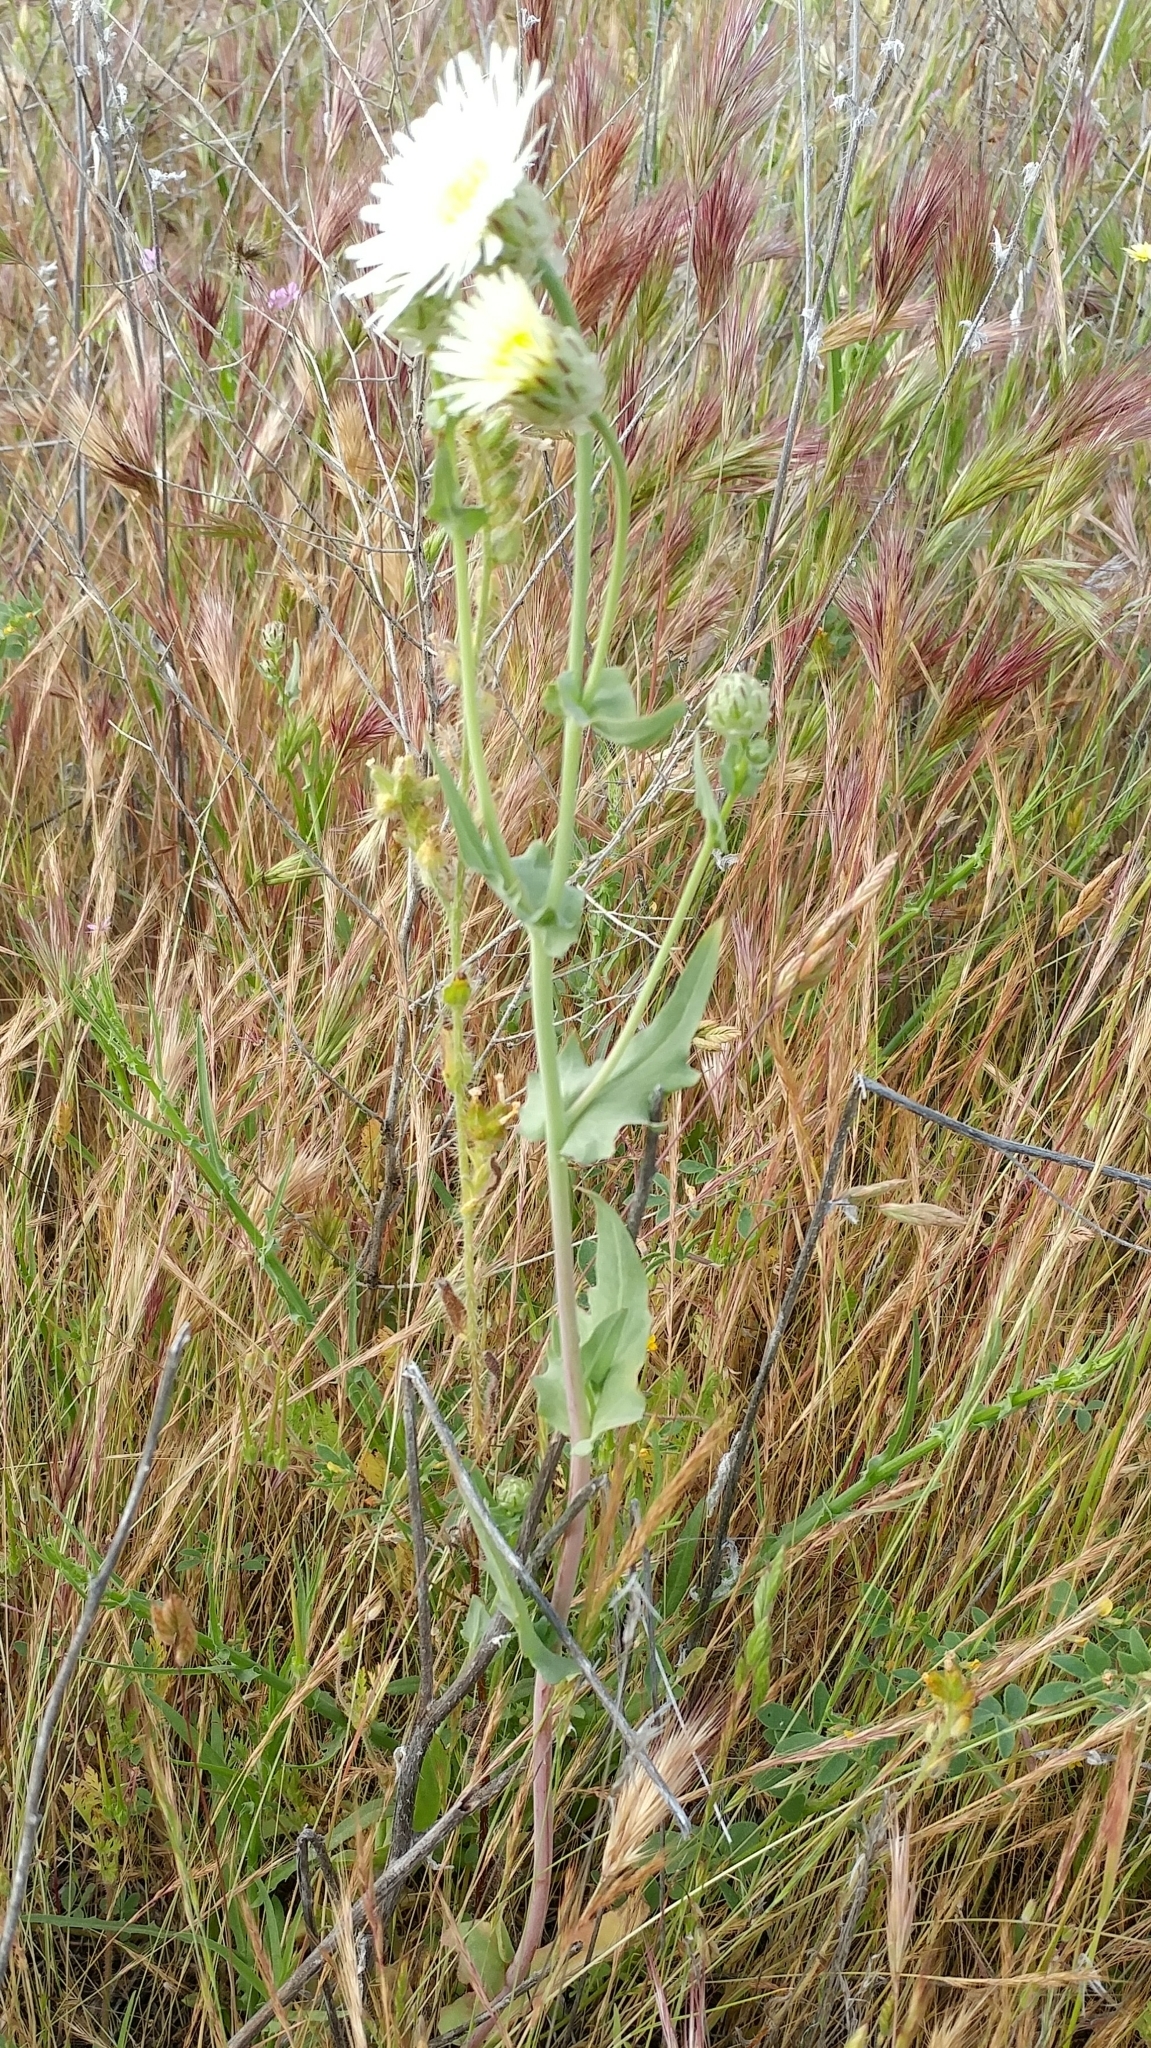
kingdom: Plantae
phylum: Tracheophyta
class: Magnoliopsida
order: Asterales
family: Asteraceae
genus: Malacothrix
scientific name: Malacothrix coulteri
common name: Snake's-head
